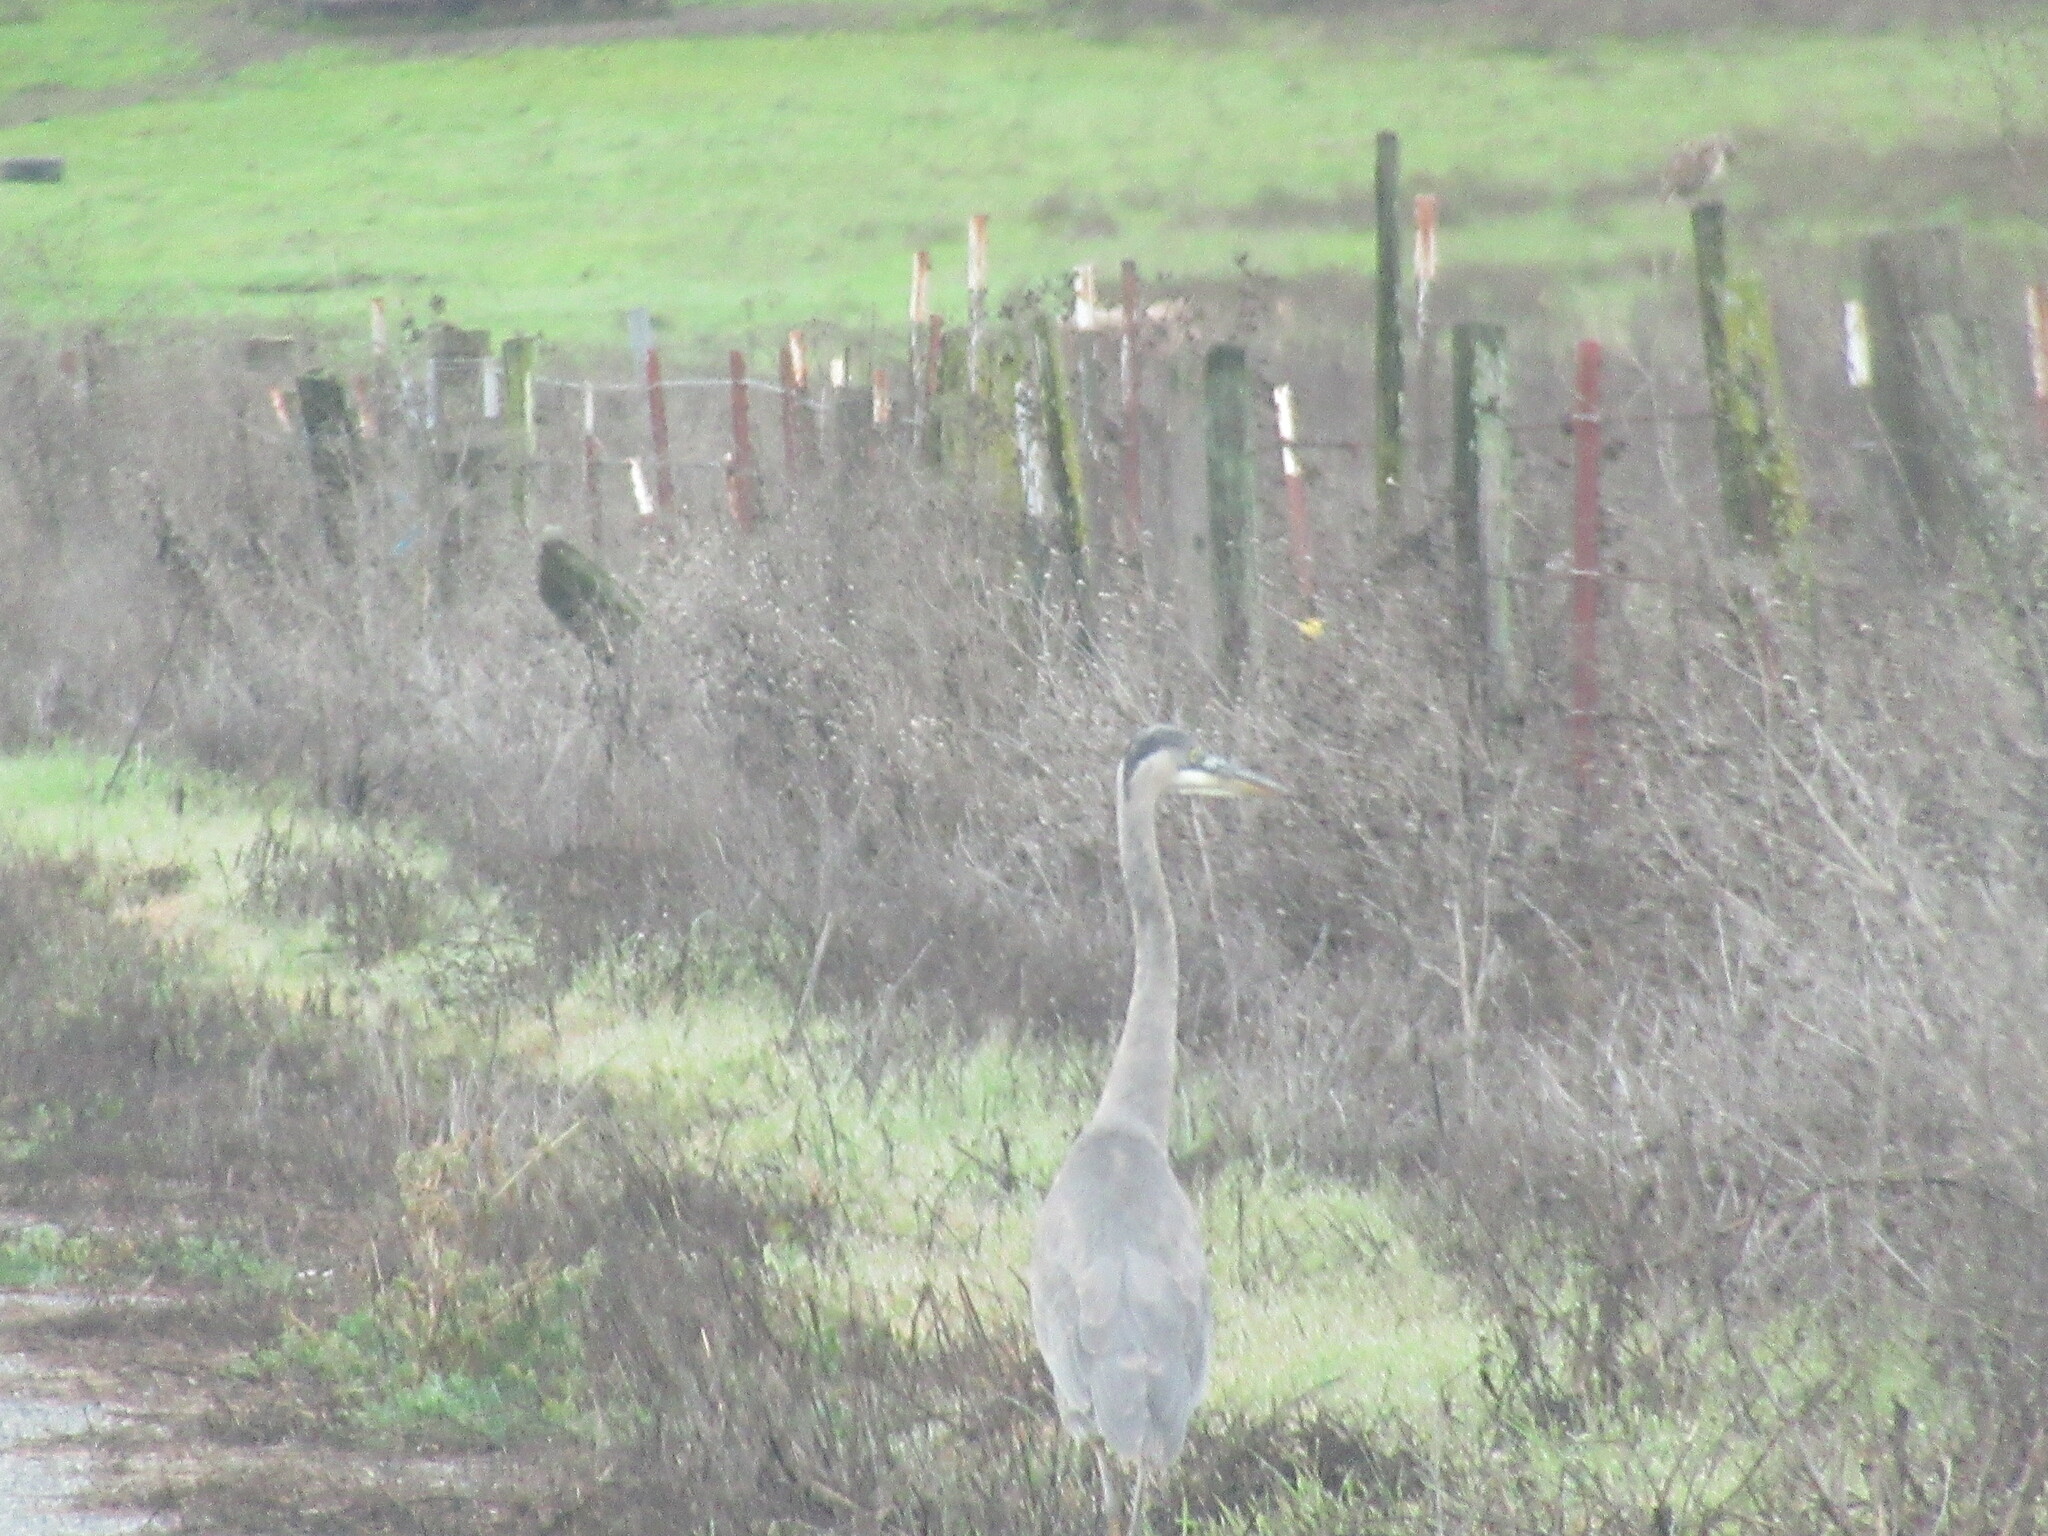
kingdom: Animalia
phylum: Chordata
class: Aves
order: Pelecaniformes
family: Ardeidae
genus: Ardea
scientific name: Ardea herodias
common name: Great blue heron
